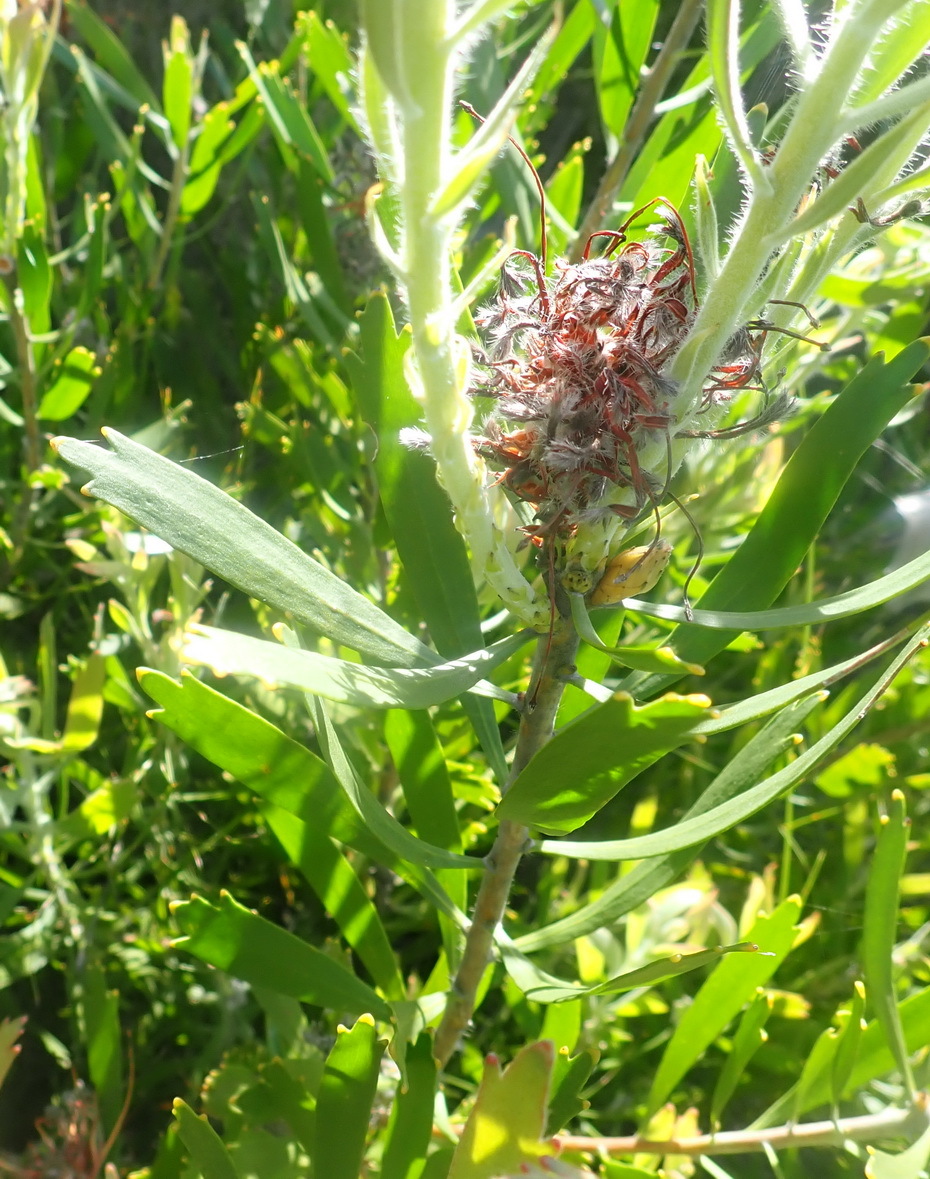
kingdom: Plantae
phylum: Tracheophyta
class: Magnoliopsida
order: Proteales
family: Proteaceae
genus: Leucospermum
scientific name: Leucospermum cuneiforme
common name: Common pincushion
